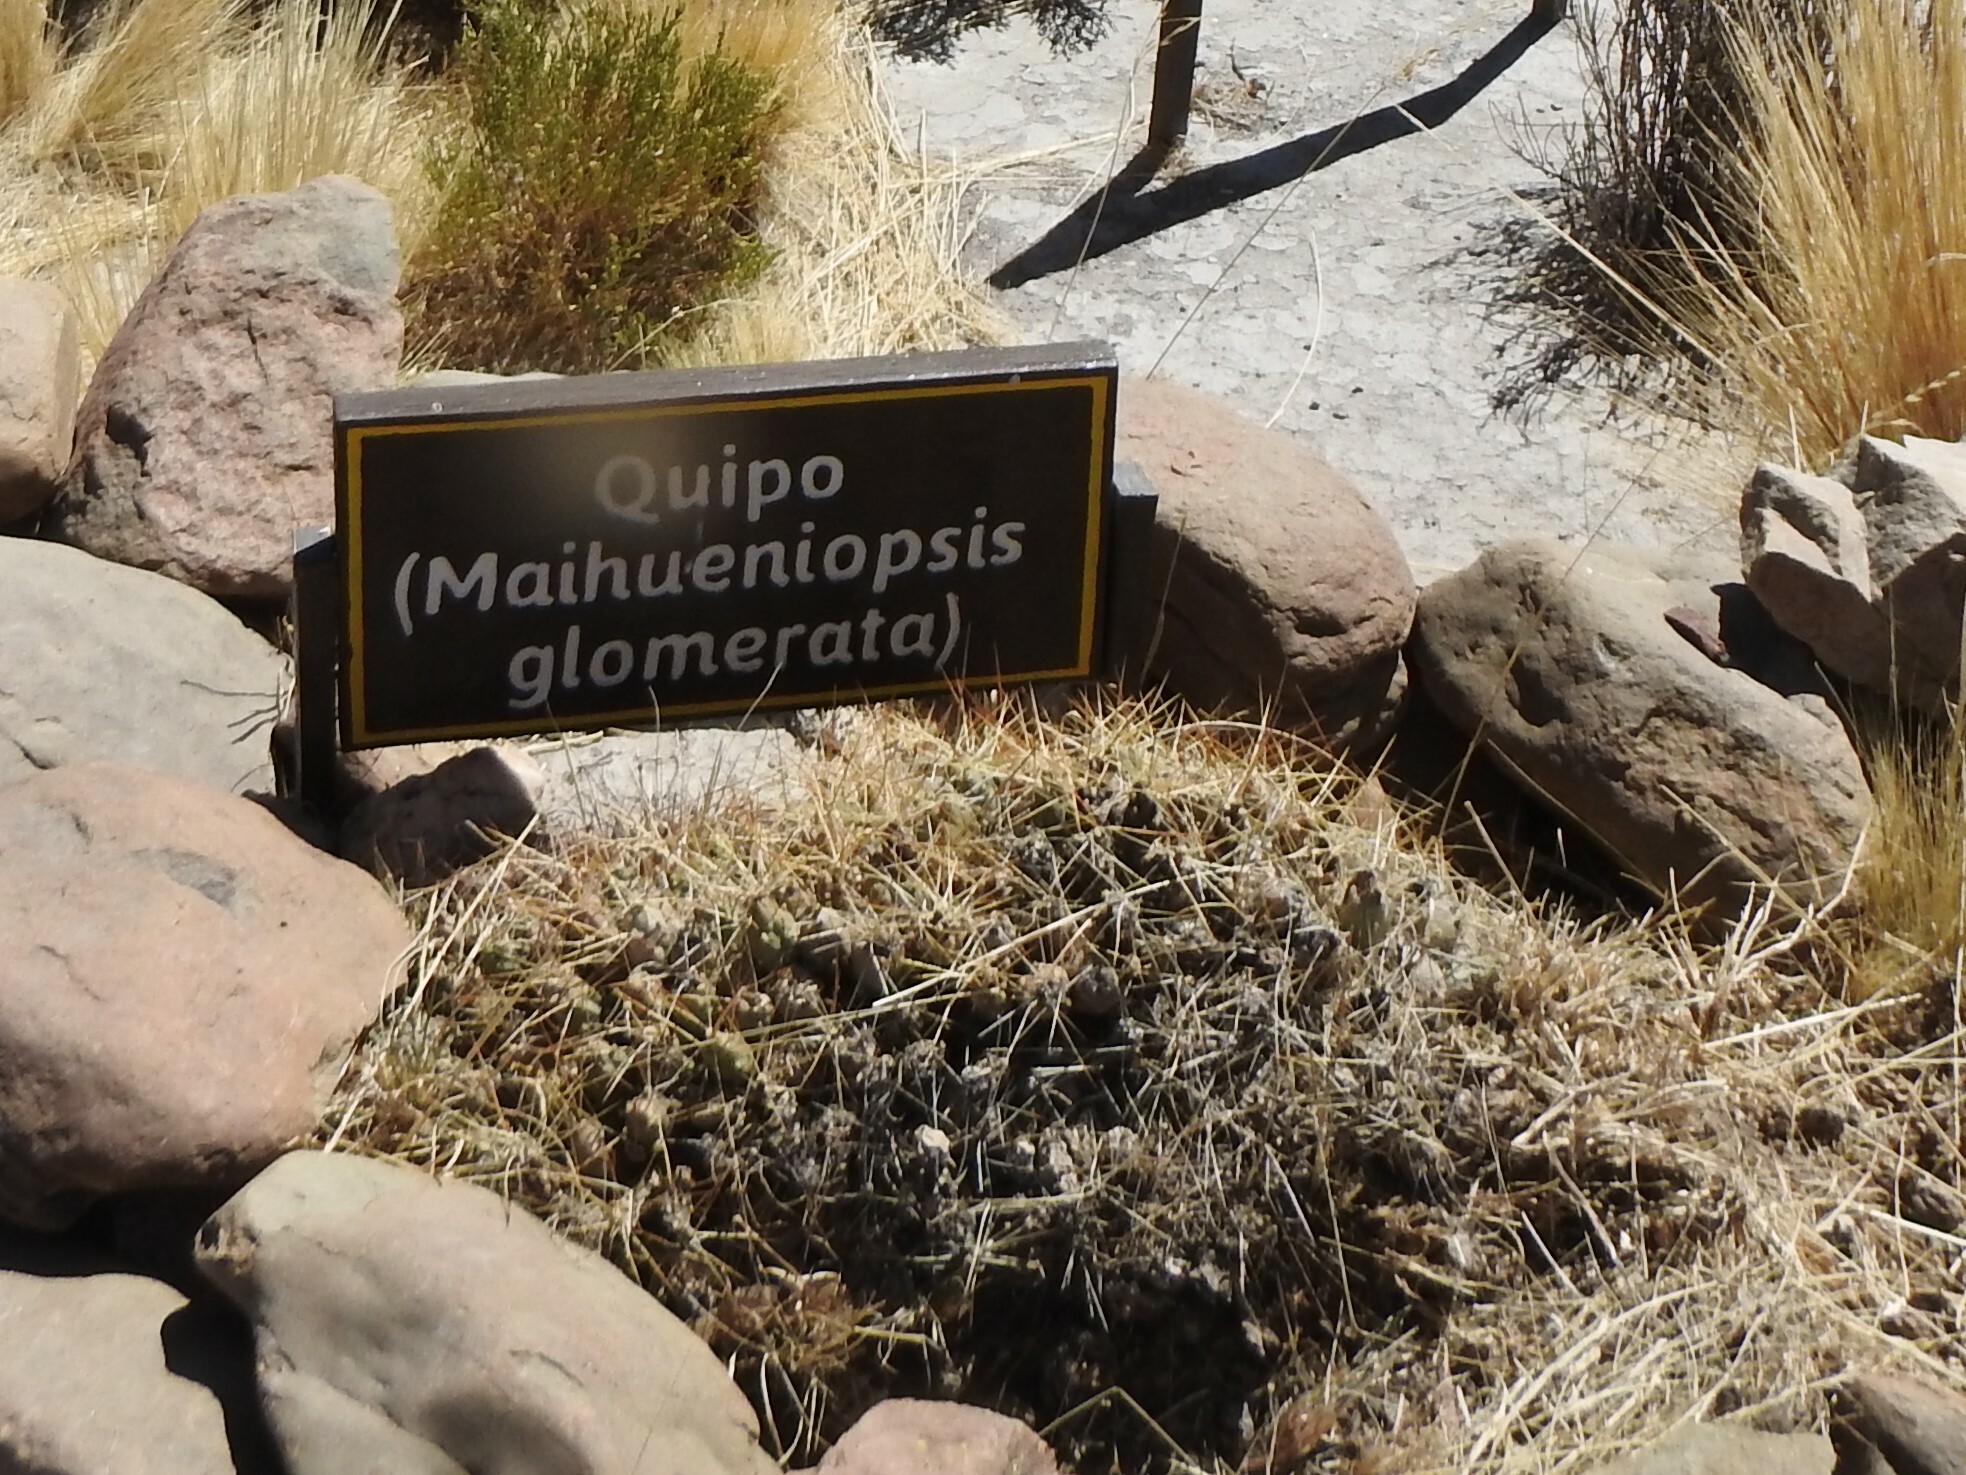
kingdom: Plantae
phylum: Tracheophyta
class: Magnoliopsida
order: Caryophyllales
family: Cactaceae
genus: Cumulopuntia
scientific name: Cumulopuntia boliviana
